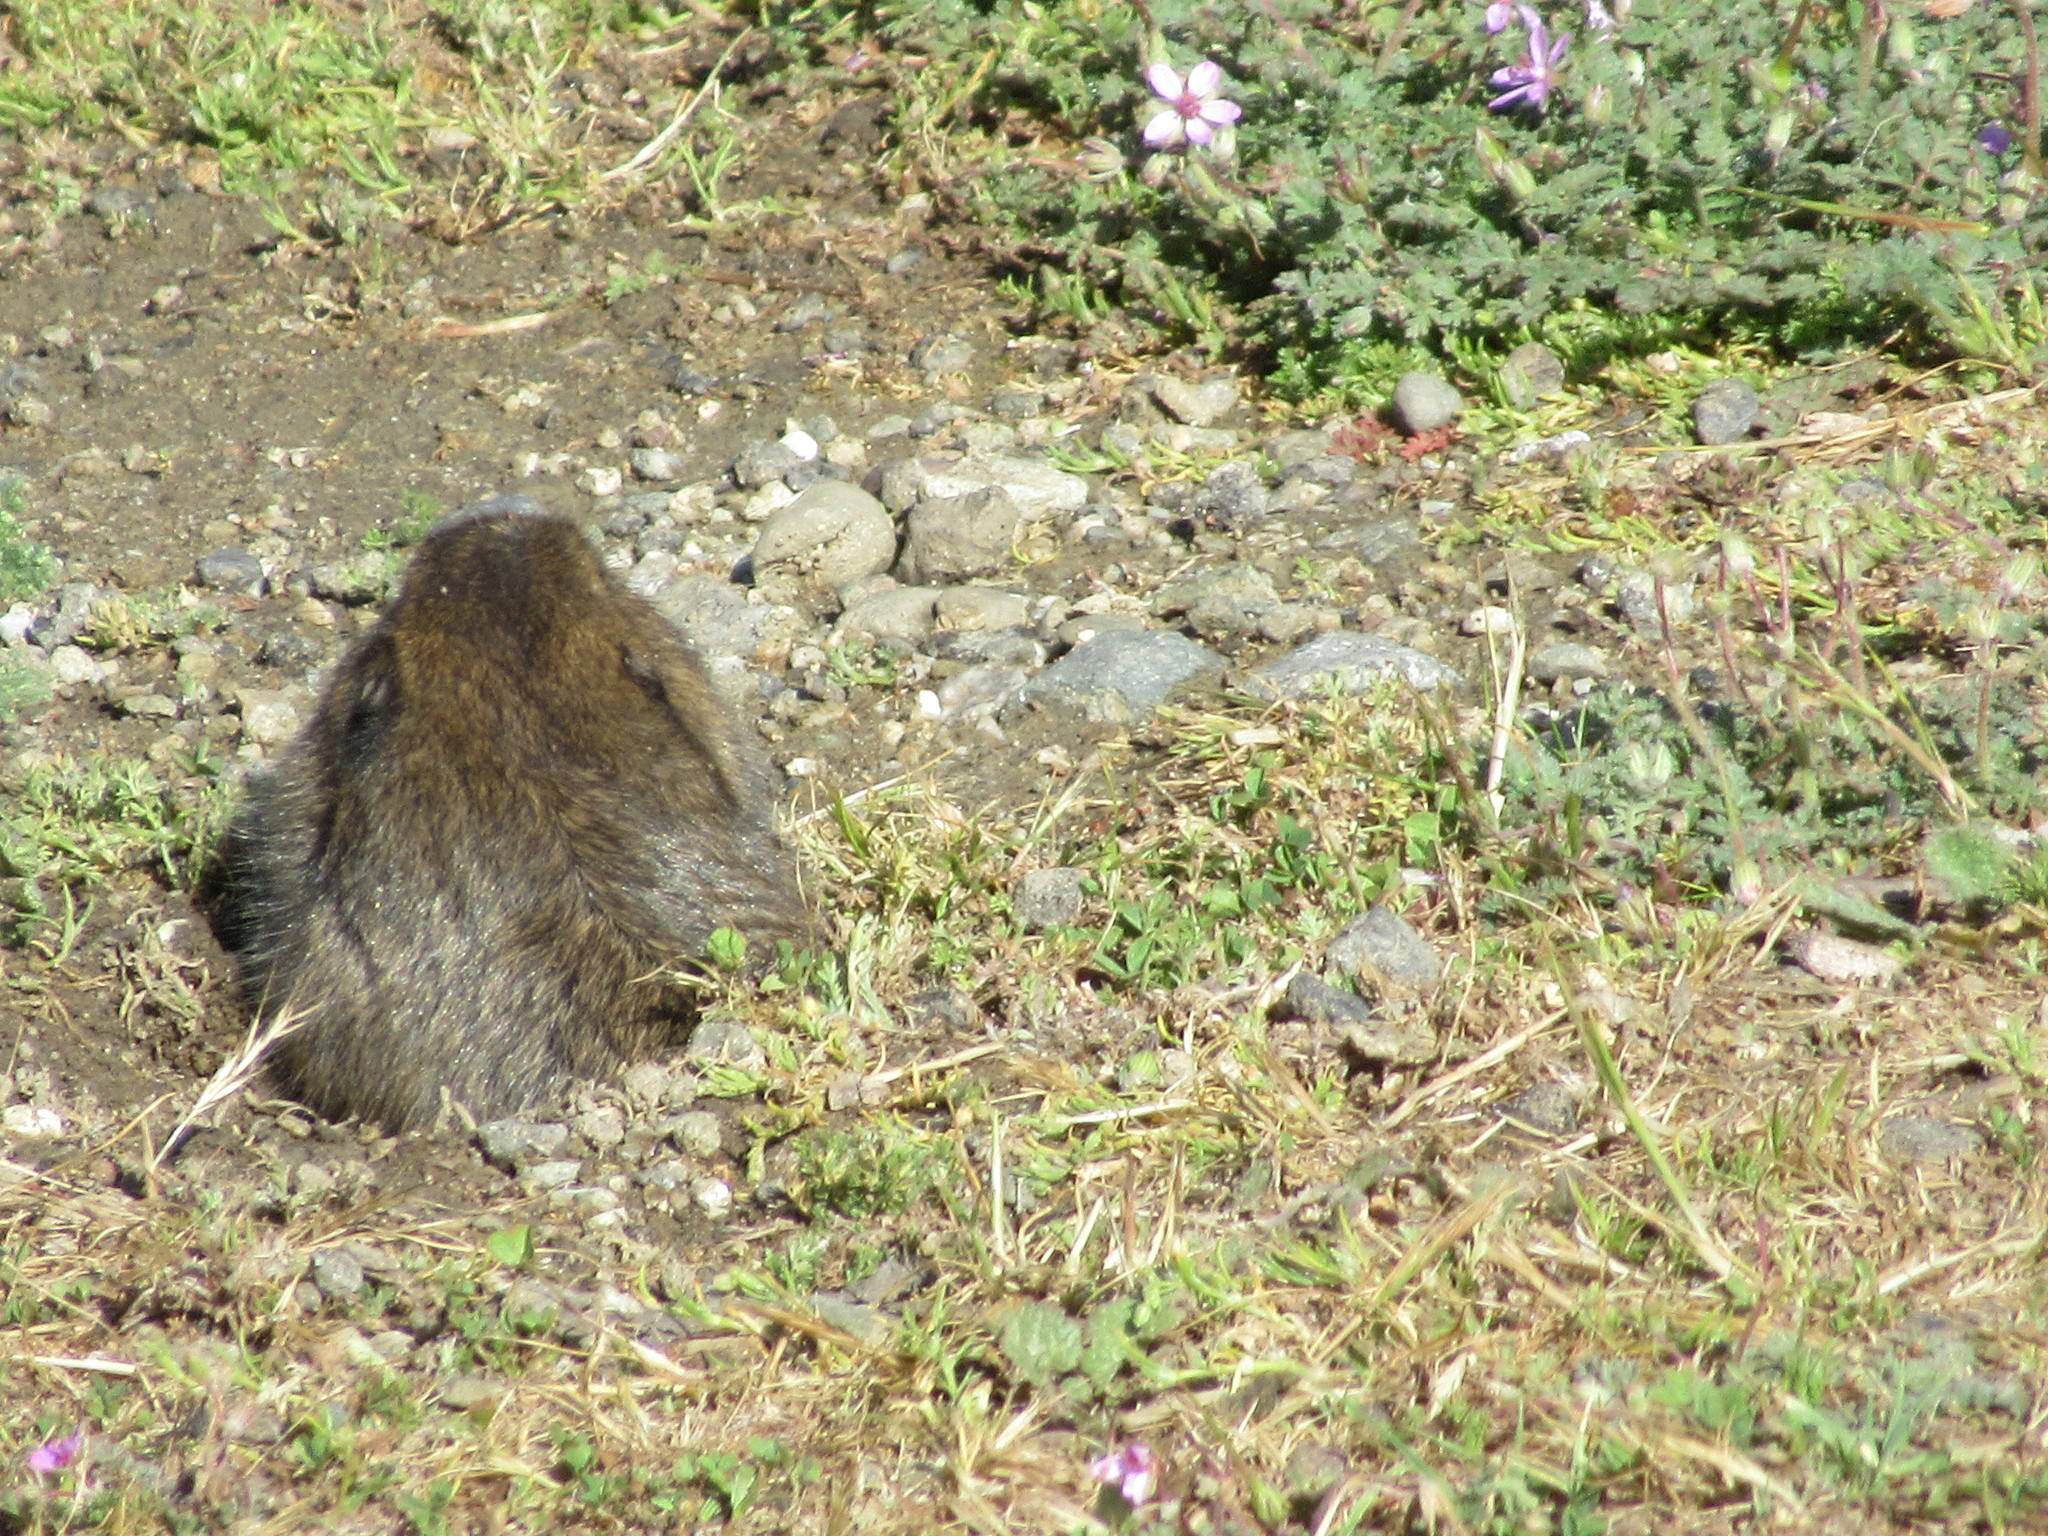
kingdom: Animalia
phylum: Chordata
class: Mammalia
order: Rodentia
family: Geomyidae
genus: Thomomys
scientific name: Thomomys bottae
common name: Botta's pocket gopher
